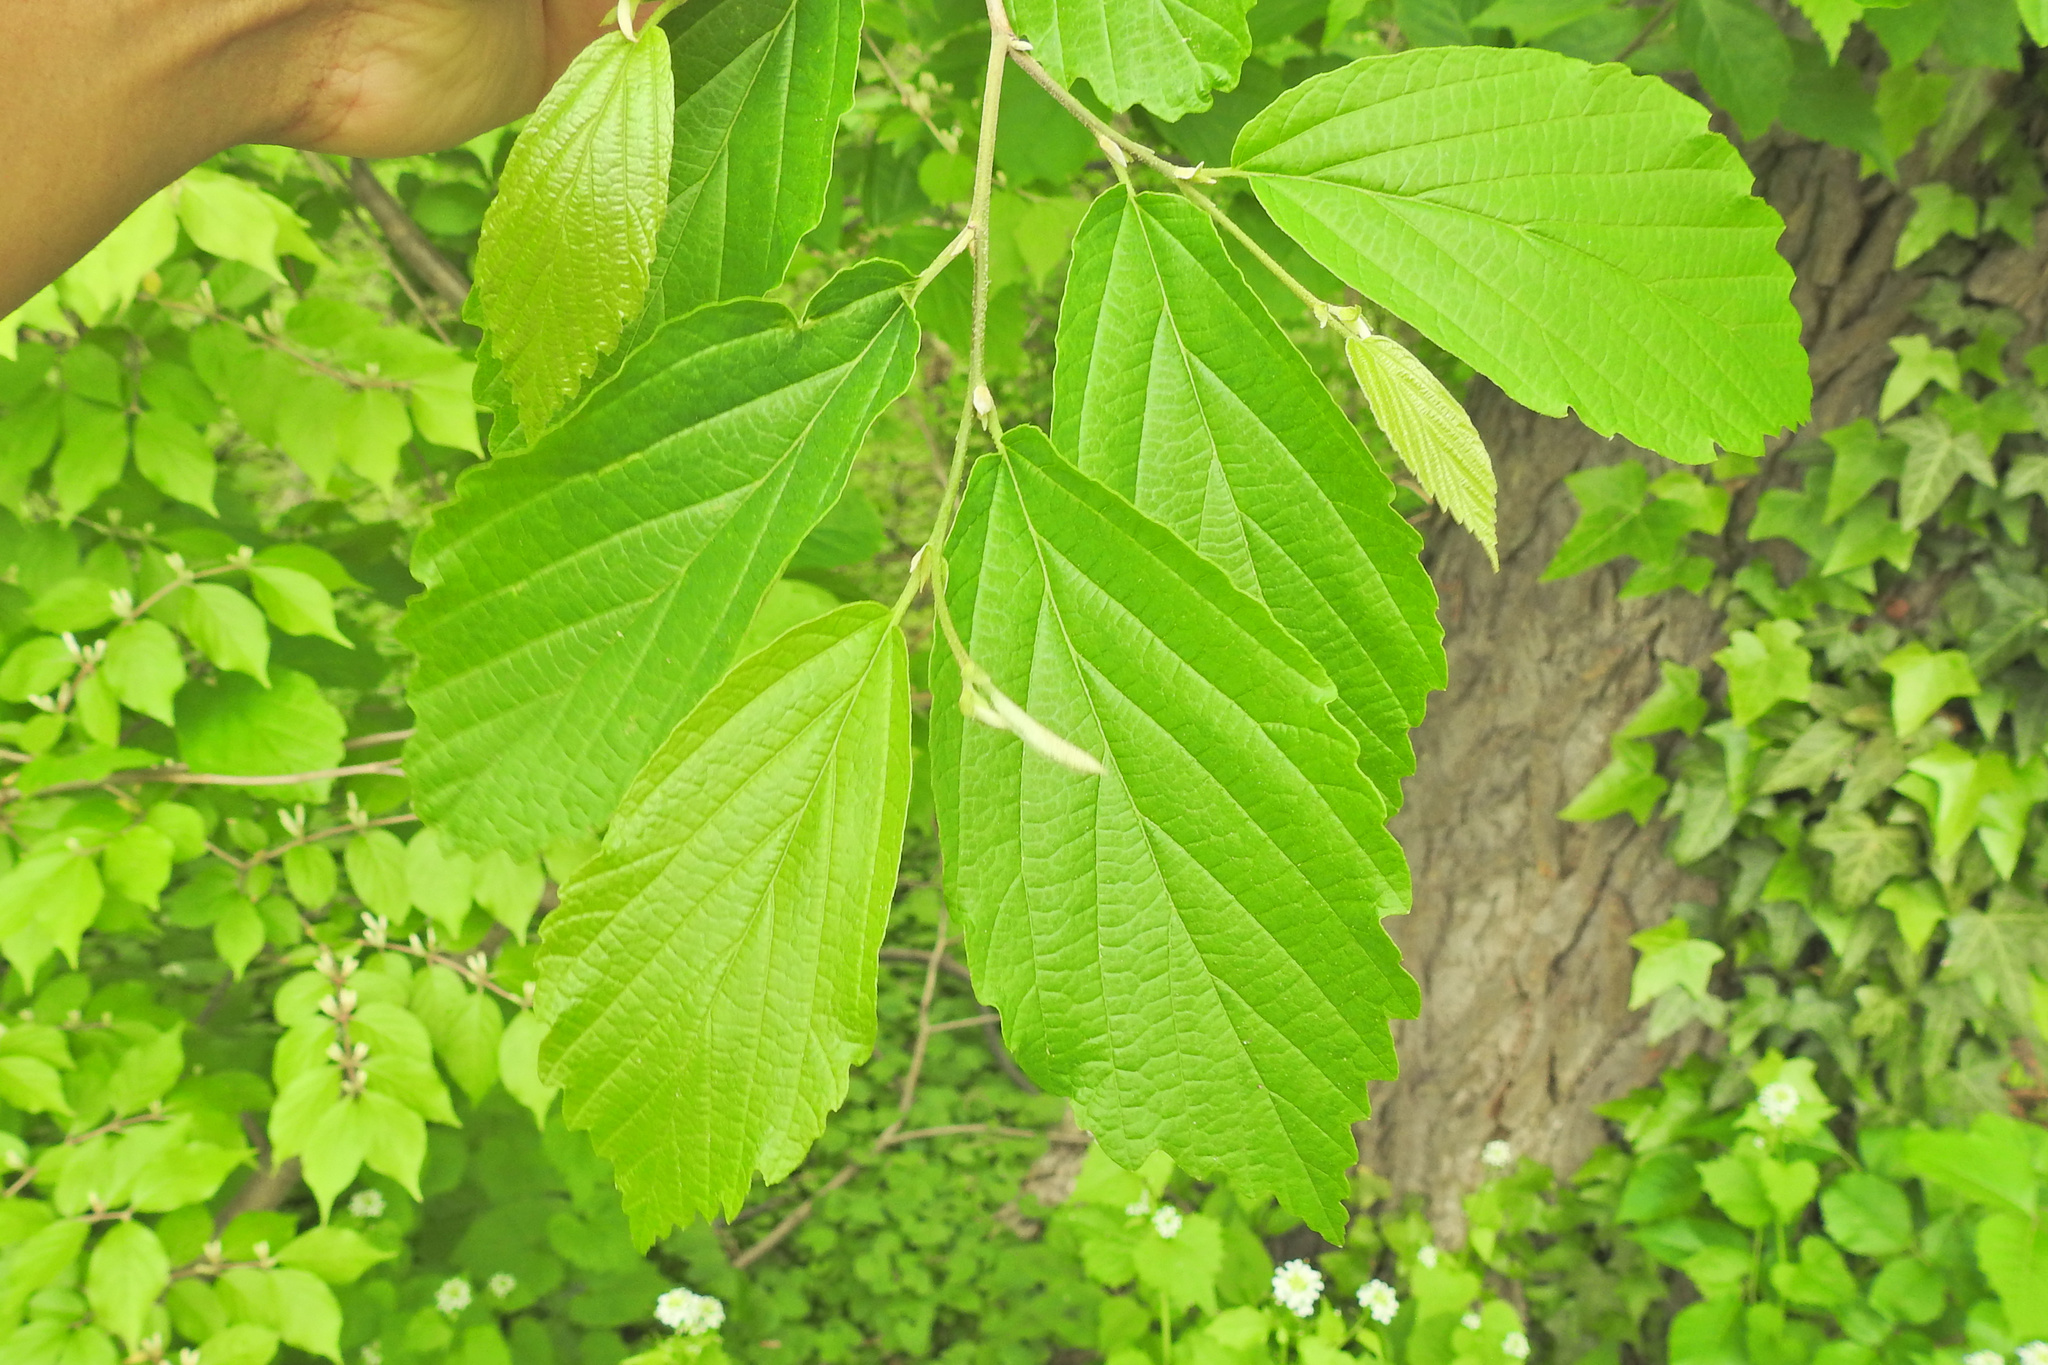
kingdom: Plantae
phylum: Tracheophyta
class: Magnoliopsida
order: Saxifragales
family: Hamamelidaceae
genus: Hamamelis
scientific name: Hamamelis virginiana
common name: Witch-hazel
